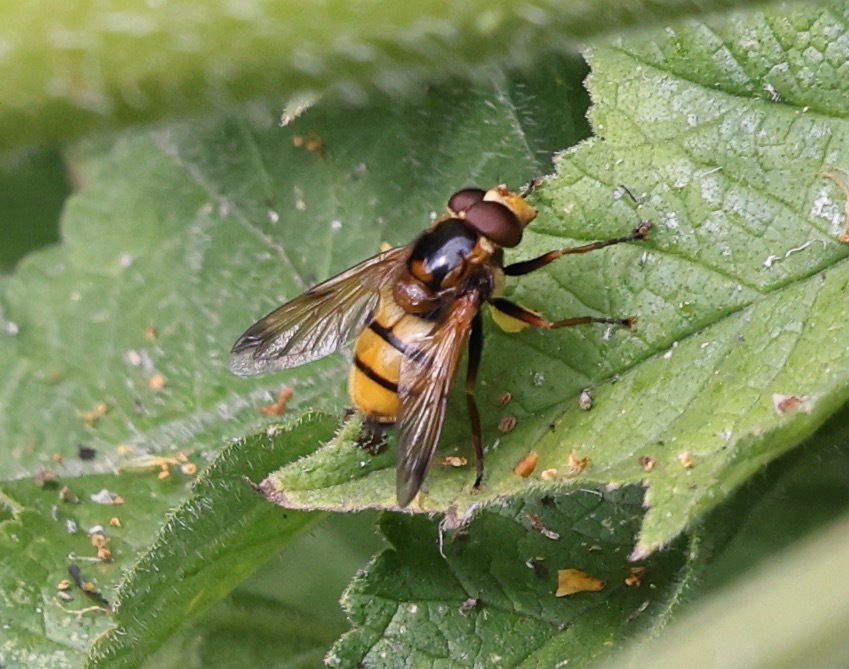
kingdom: Animalia
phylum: Arthropoda
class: Insecta
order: Diptera
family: Syrphidae
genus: Volucella
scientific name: Volucella inanis
